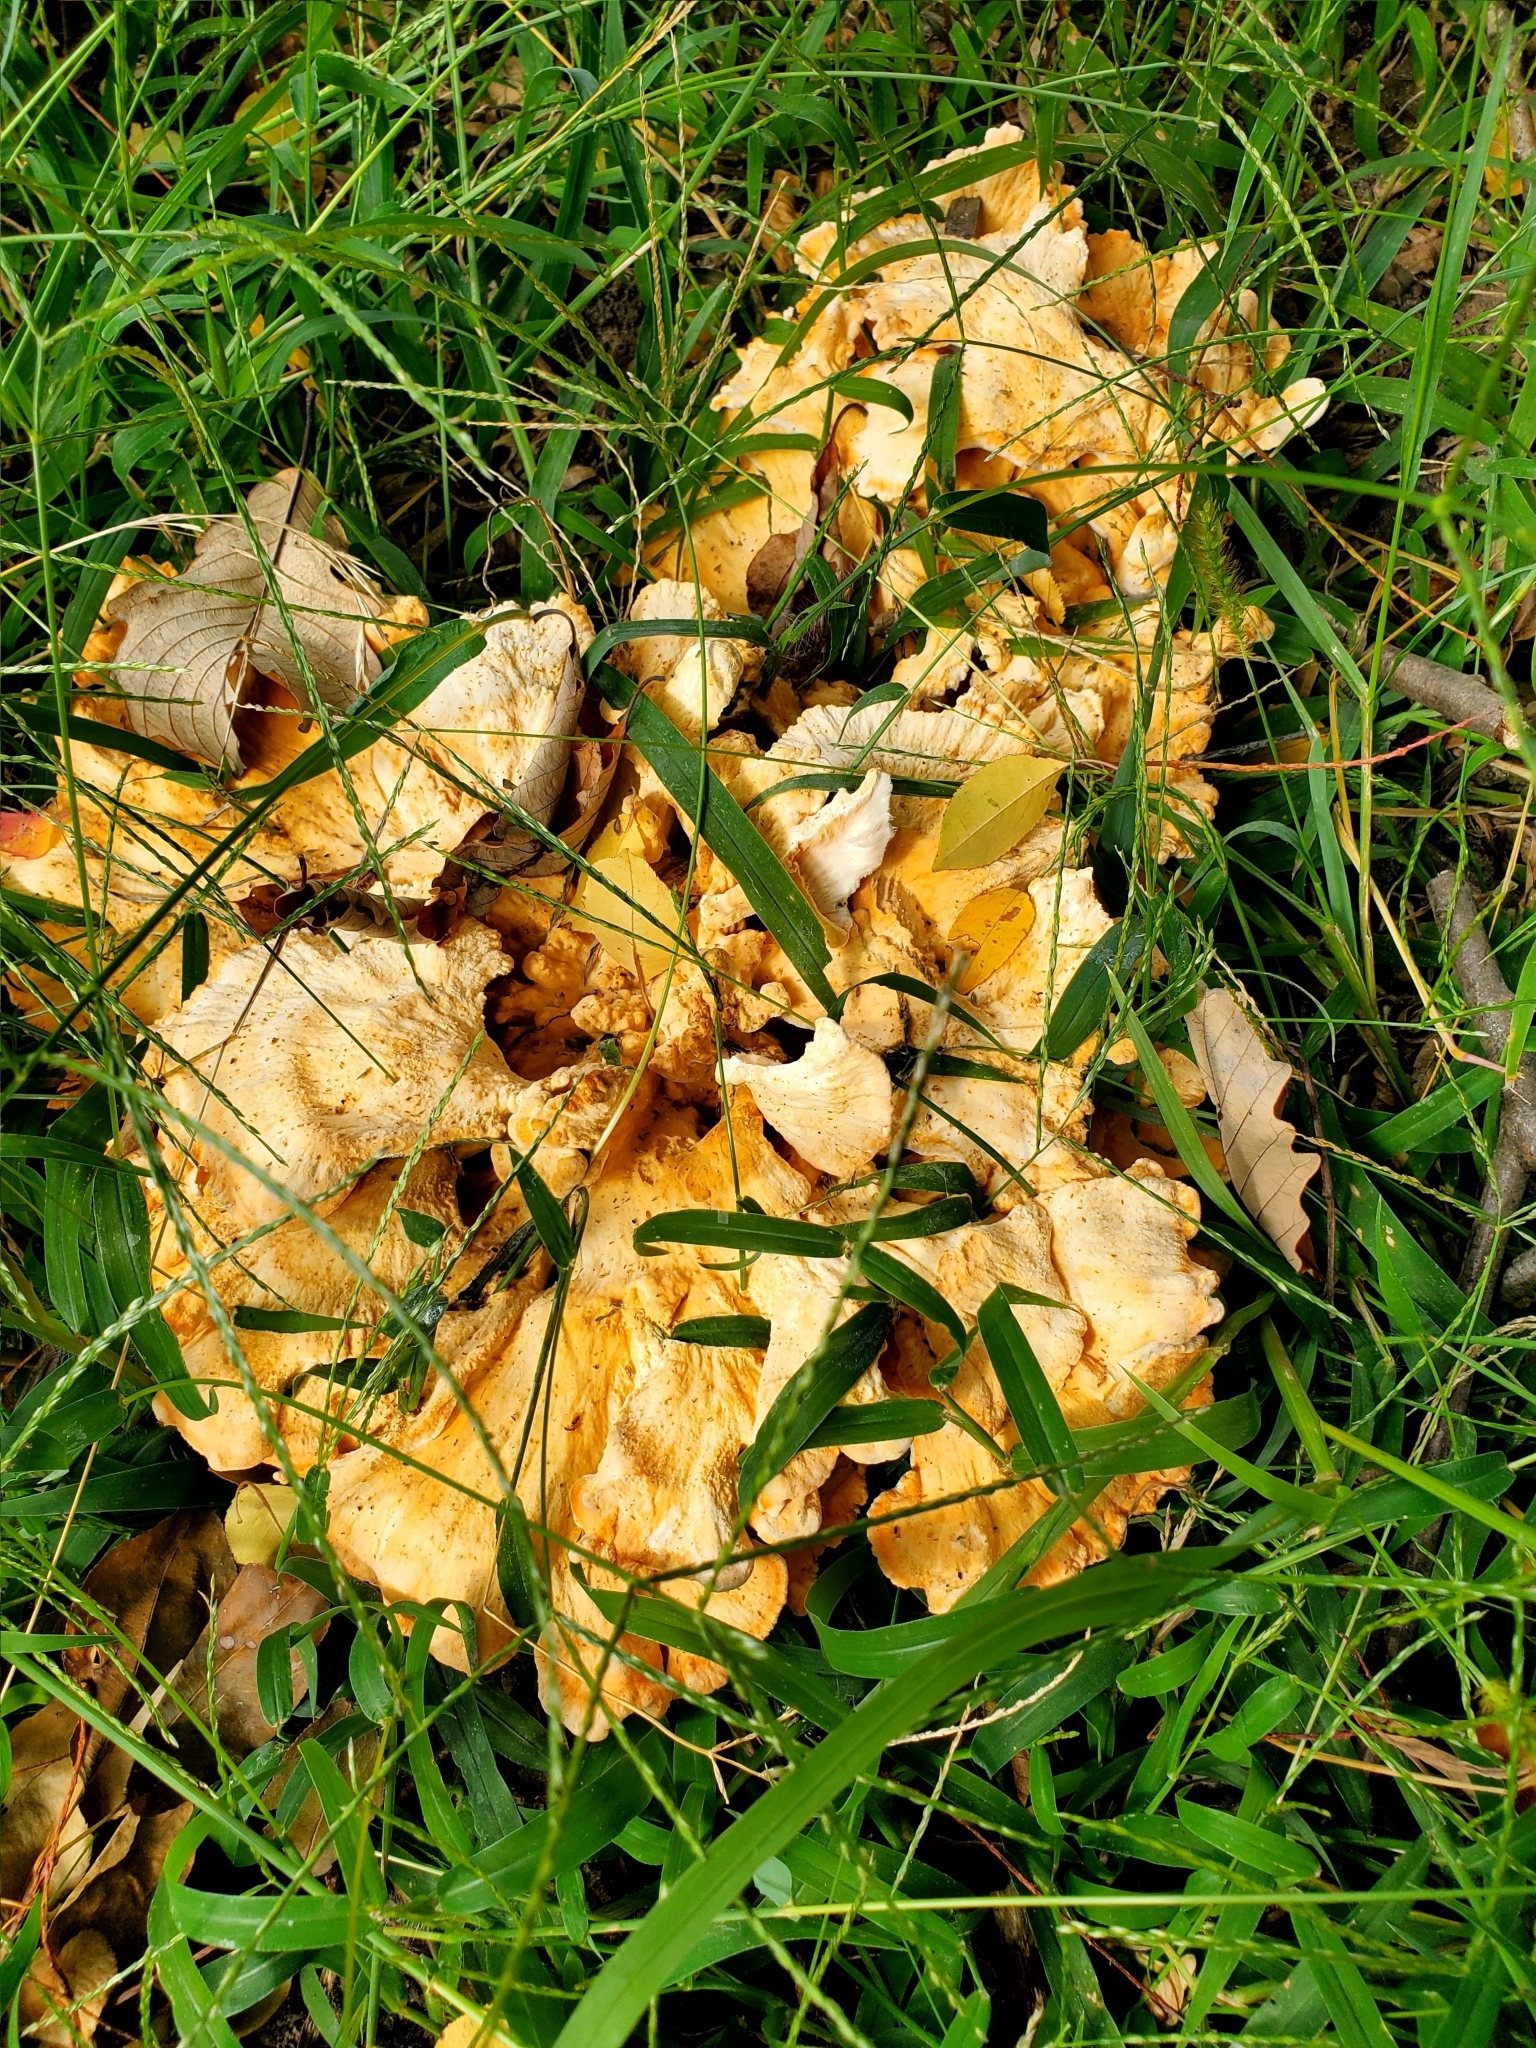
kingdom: Fungi
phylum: Basidiomycota
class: Agaricomycetes
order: Polyporales
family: Laetiporaceae
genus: Laetiporus
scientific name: Laetiporus sulphureus
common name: Chicken of the woods
